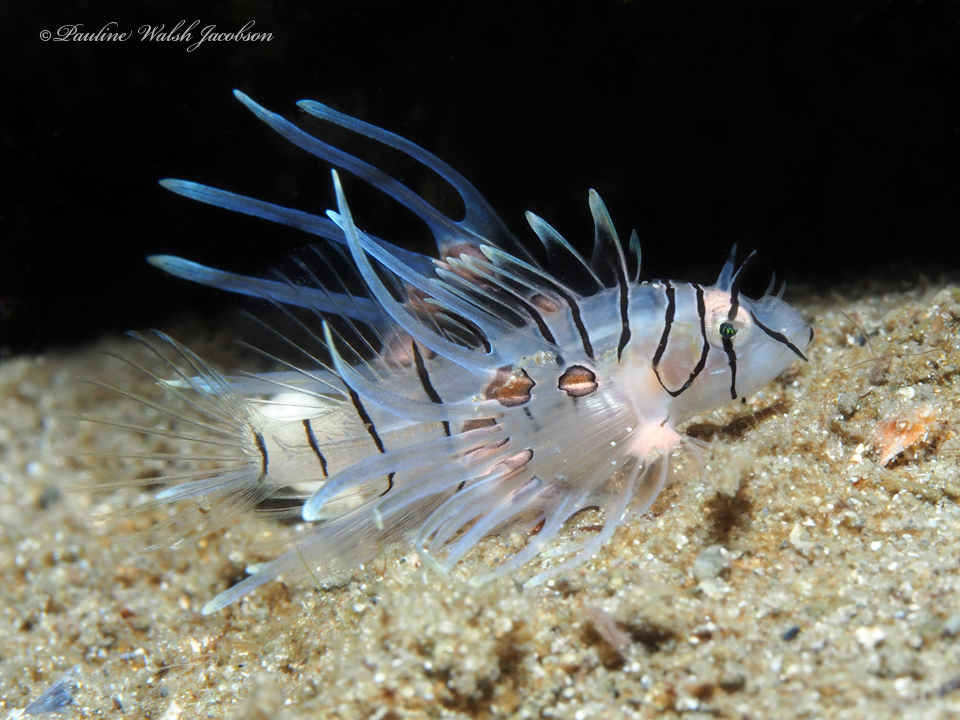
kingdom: Animalia
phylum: Chordata
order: Scorpaeniformes
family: Scorpaenidae
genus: Pterois
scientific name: Pterois volitans
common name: Lionfish
